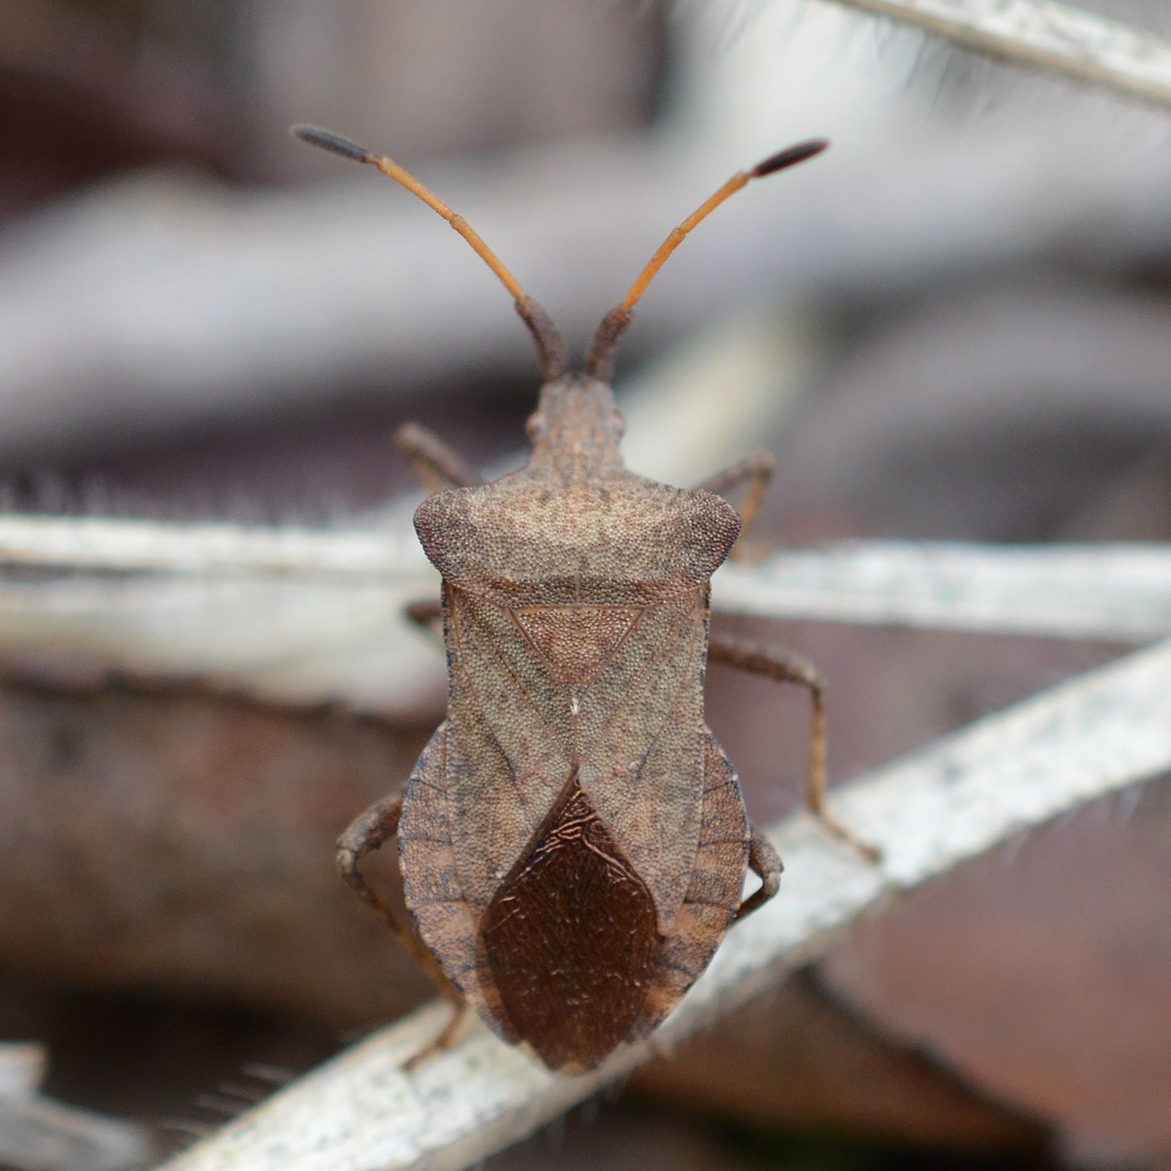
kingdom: Animalia
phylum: Arthropoda
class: Insecta
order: Hemiptera
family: Coreidae
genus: Coreus
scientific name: Coreus marginatus
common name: Dock bug
